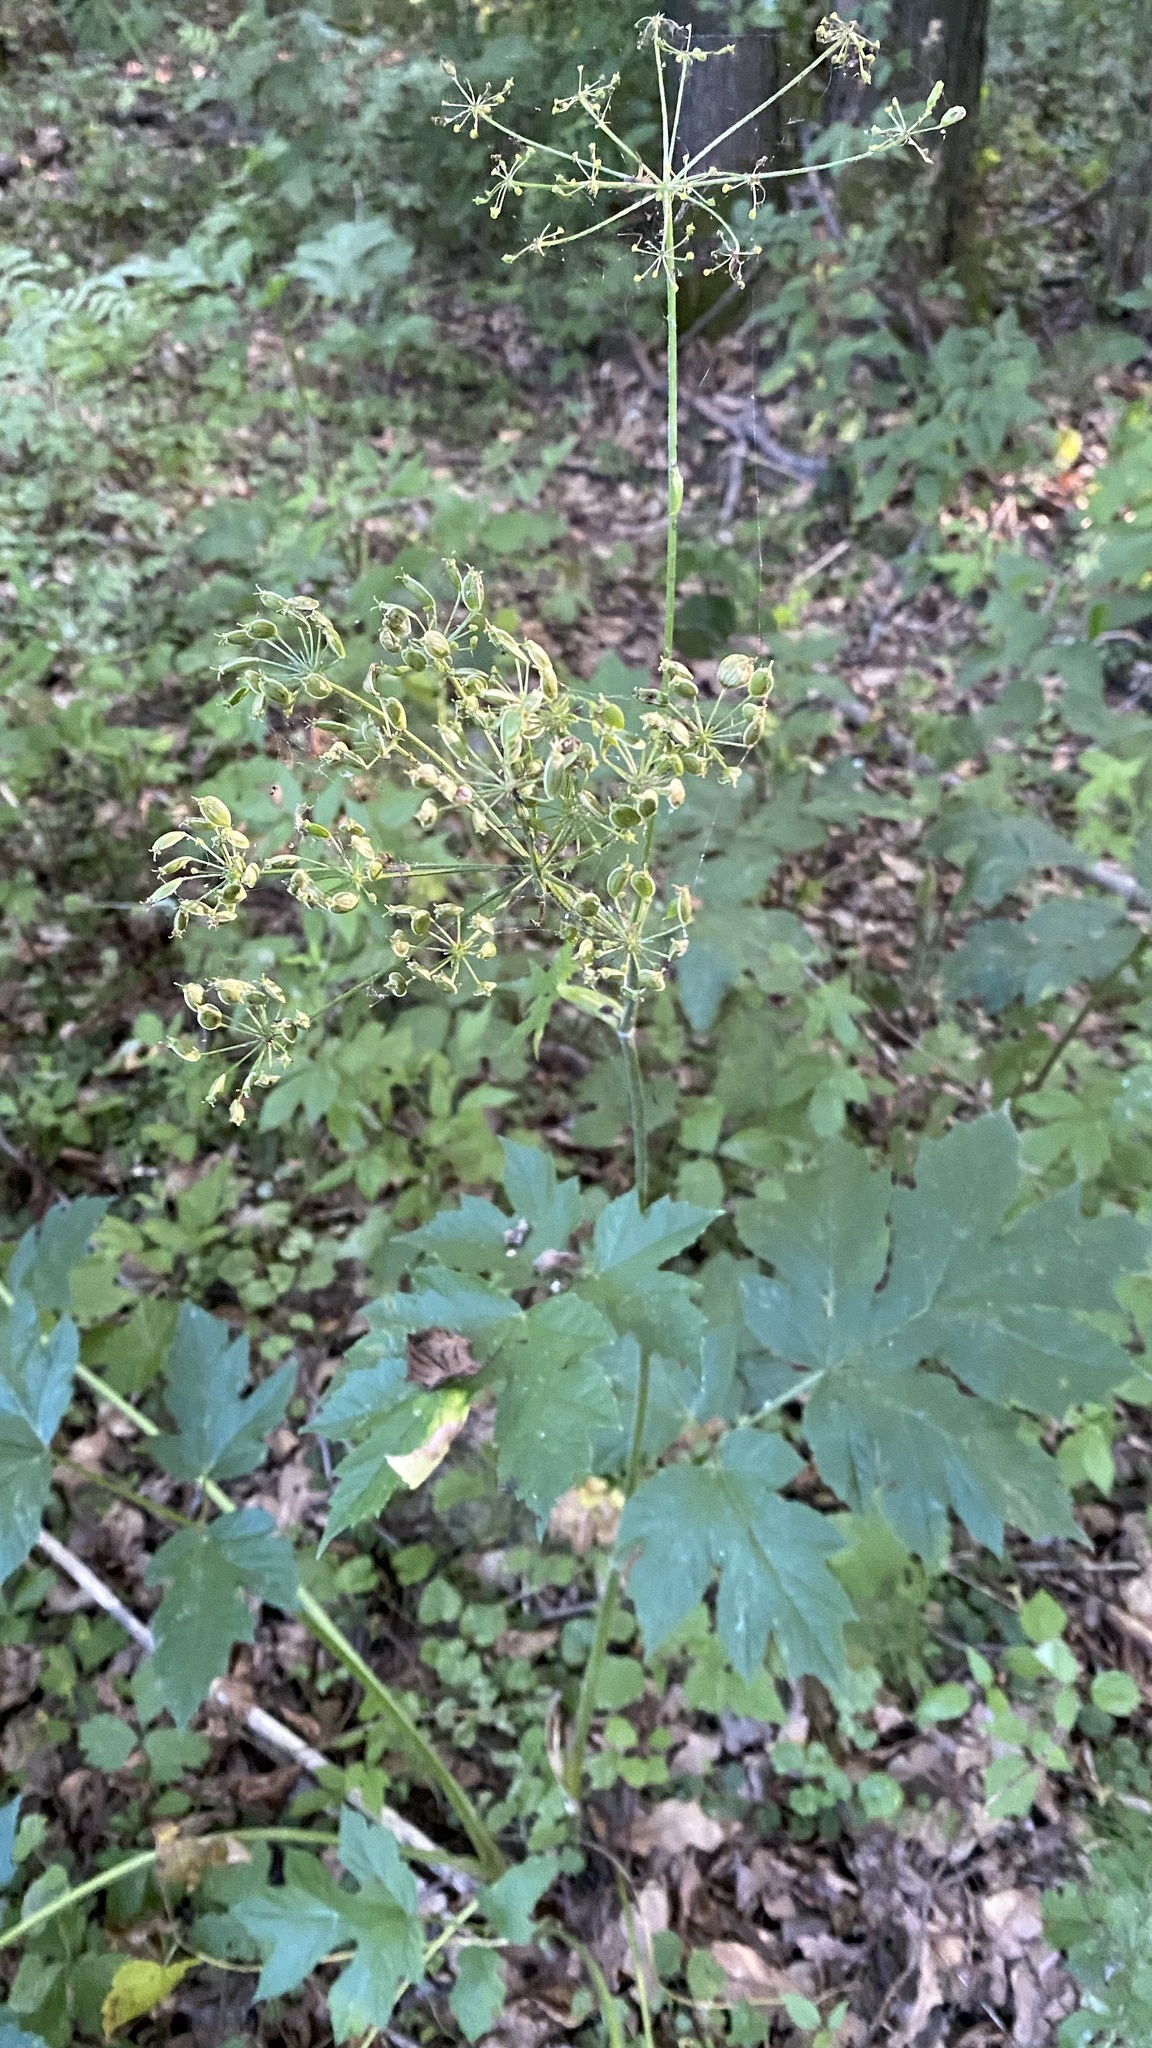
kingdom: Plantae
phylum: Tracheophyta
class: Magnoliopsida
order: Apiales
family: Apiaceae
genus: Angelica
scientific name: Angelica sylvestris
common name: Wild angelica
